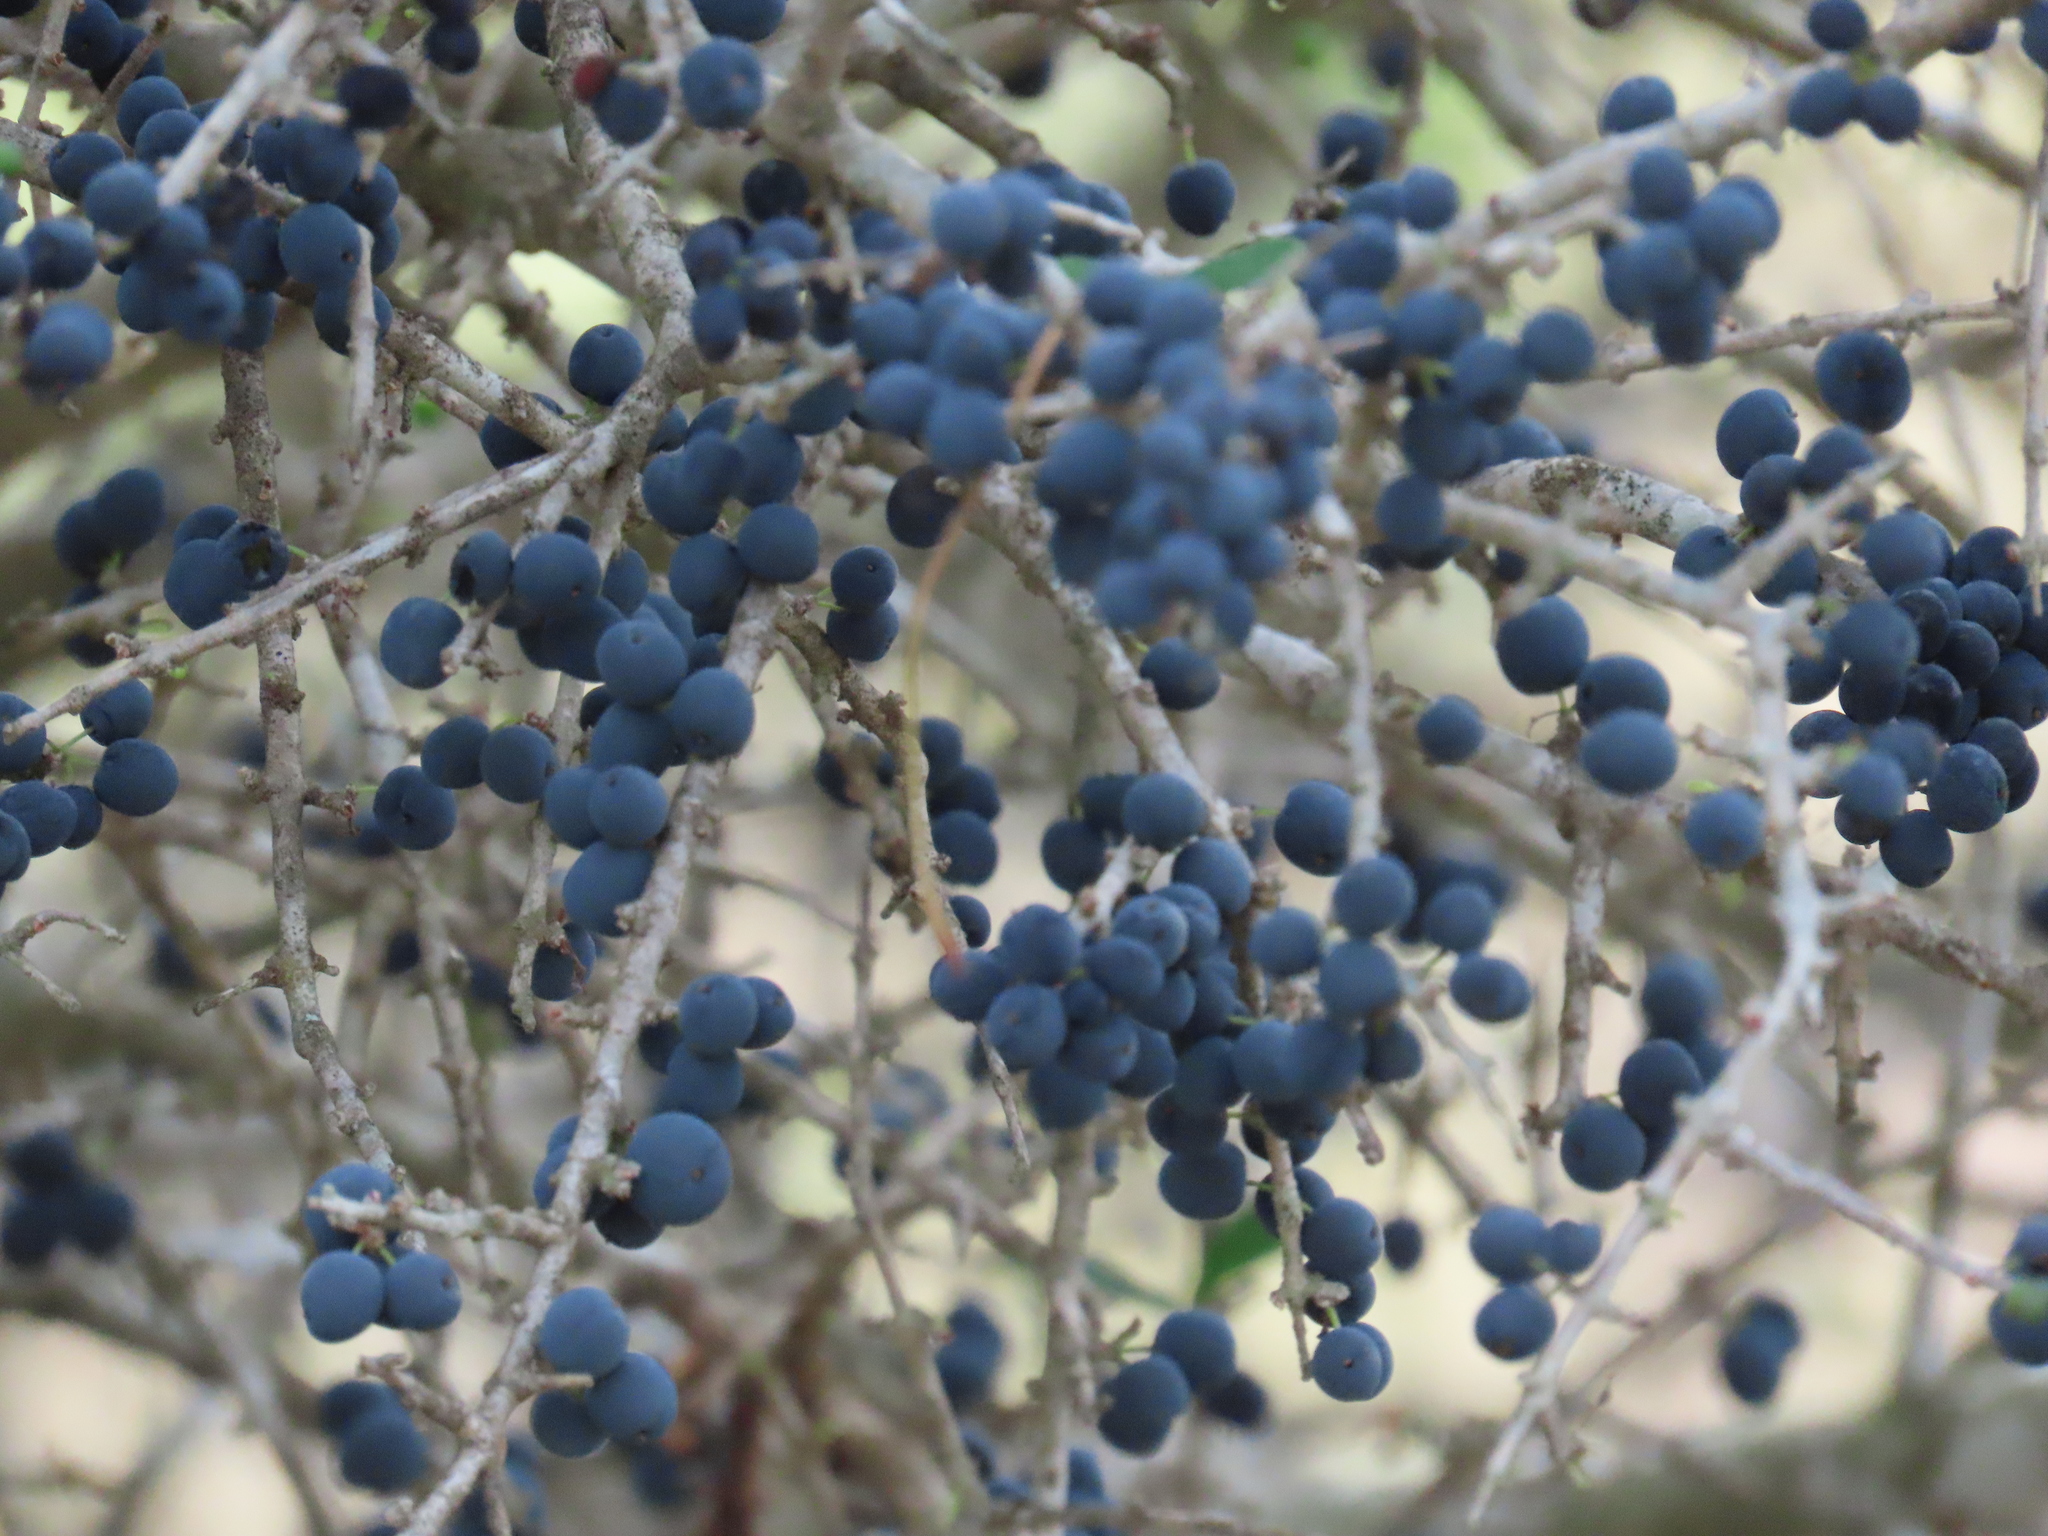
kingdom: Plantae
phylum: Tracheophyta
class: Magnoliopsida
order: Lamiales
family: Oleaceae
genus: Forestiera
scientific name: Forestiera angustifolia
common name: Elbowbush
